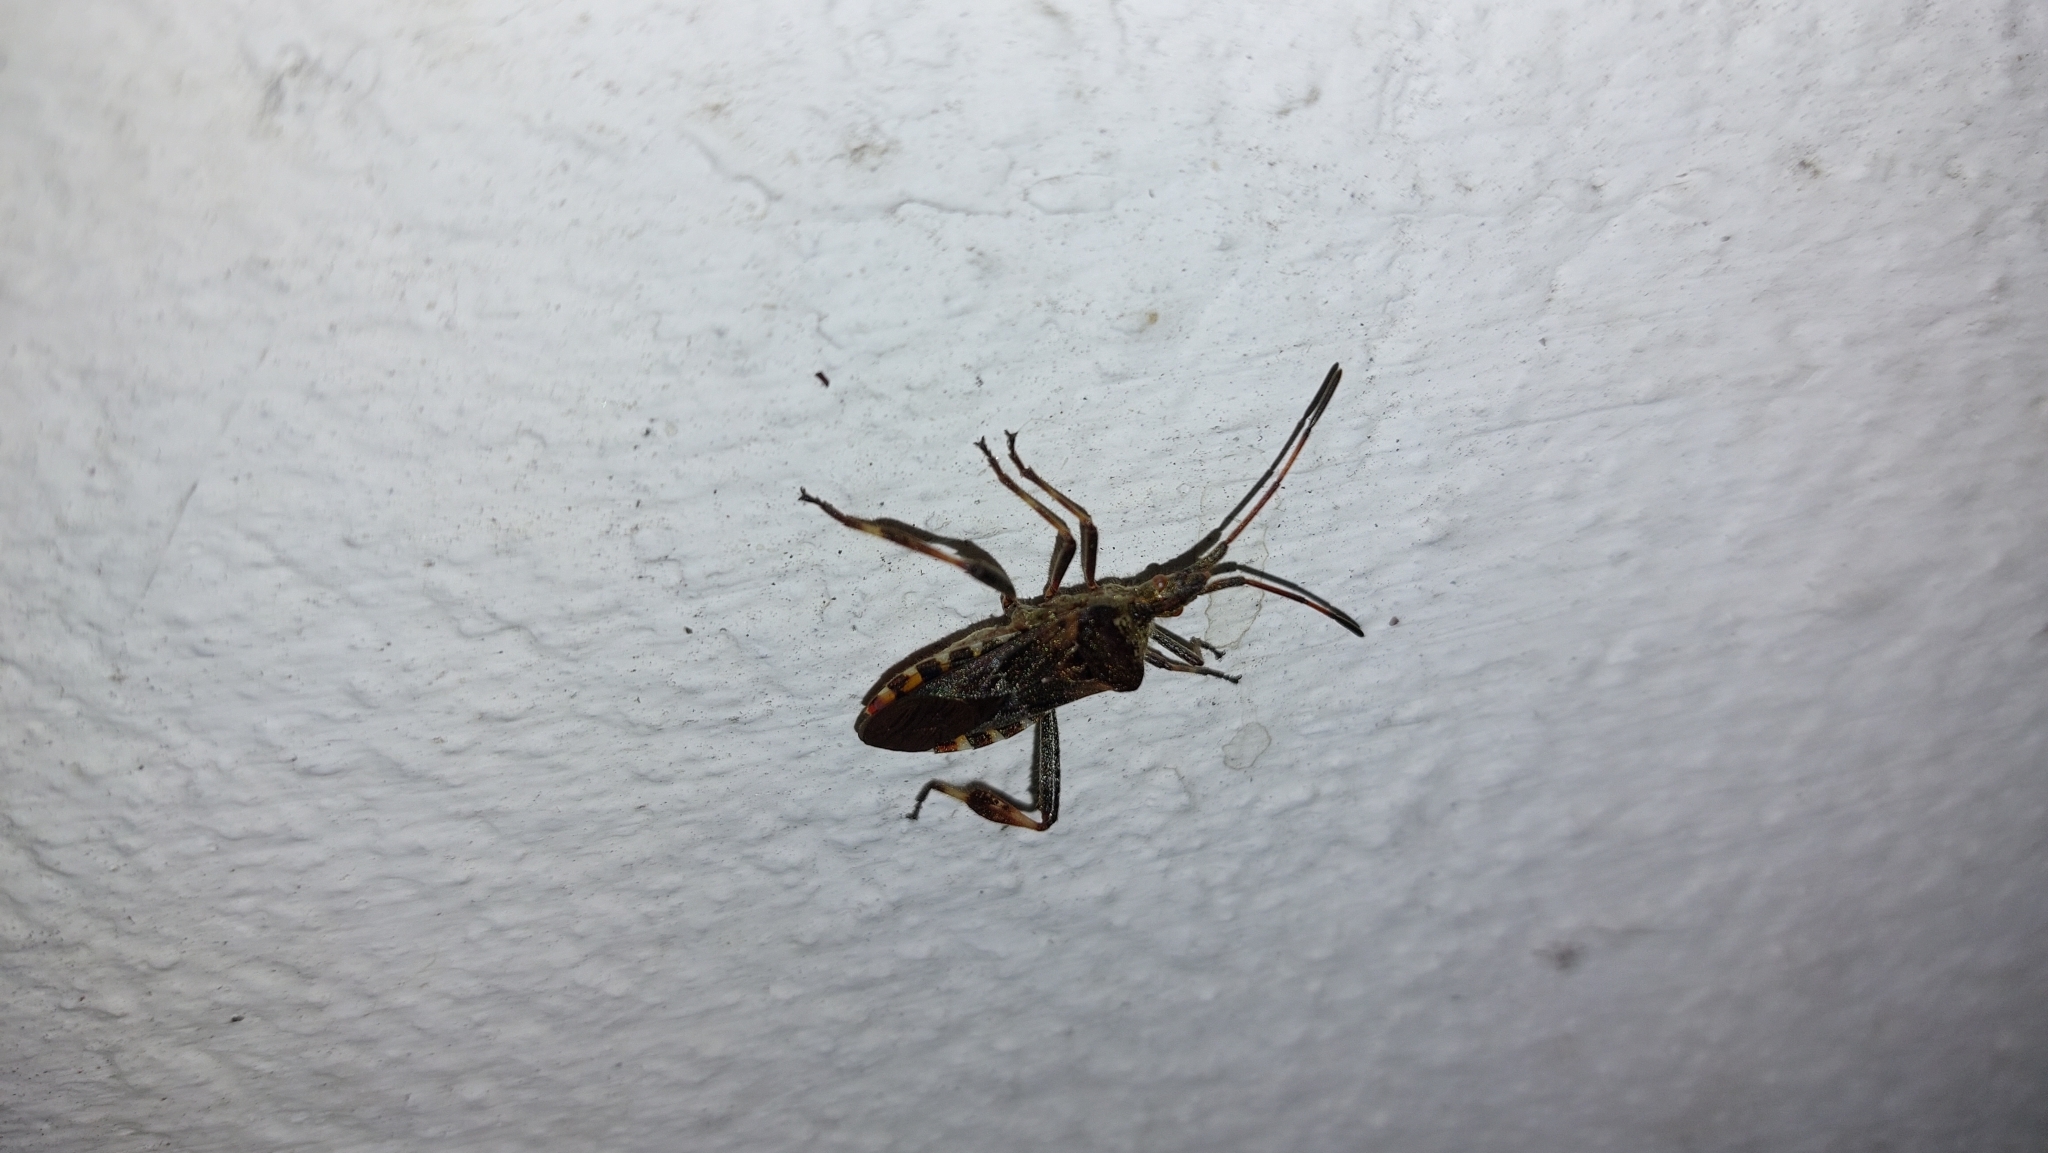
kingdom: Animalia
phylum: Arthropoda
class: Insecta
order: Hemiptera
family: Coreidae
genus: Leptoglossus
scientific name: Leptoglossus occidentalis
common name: Western conifer-seed bug
